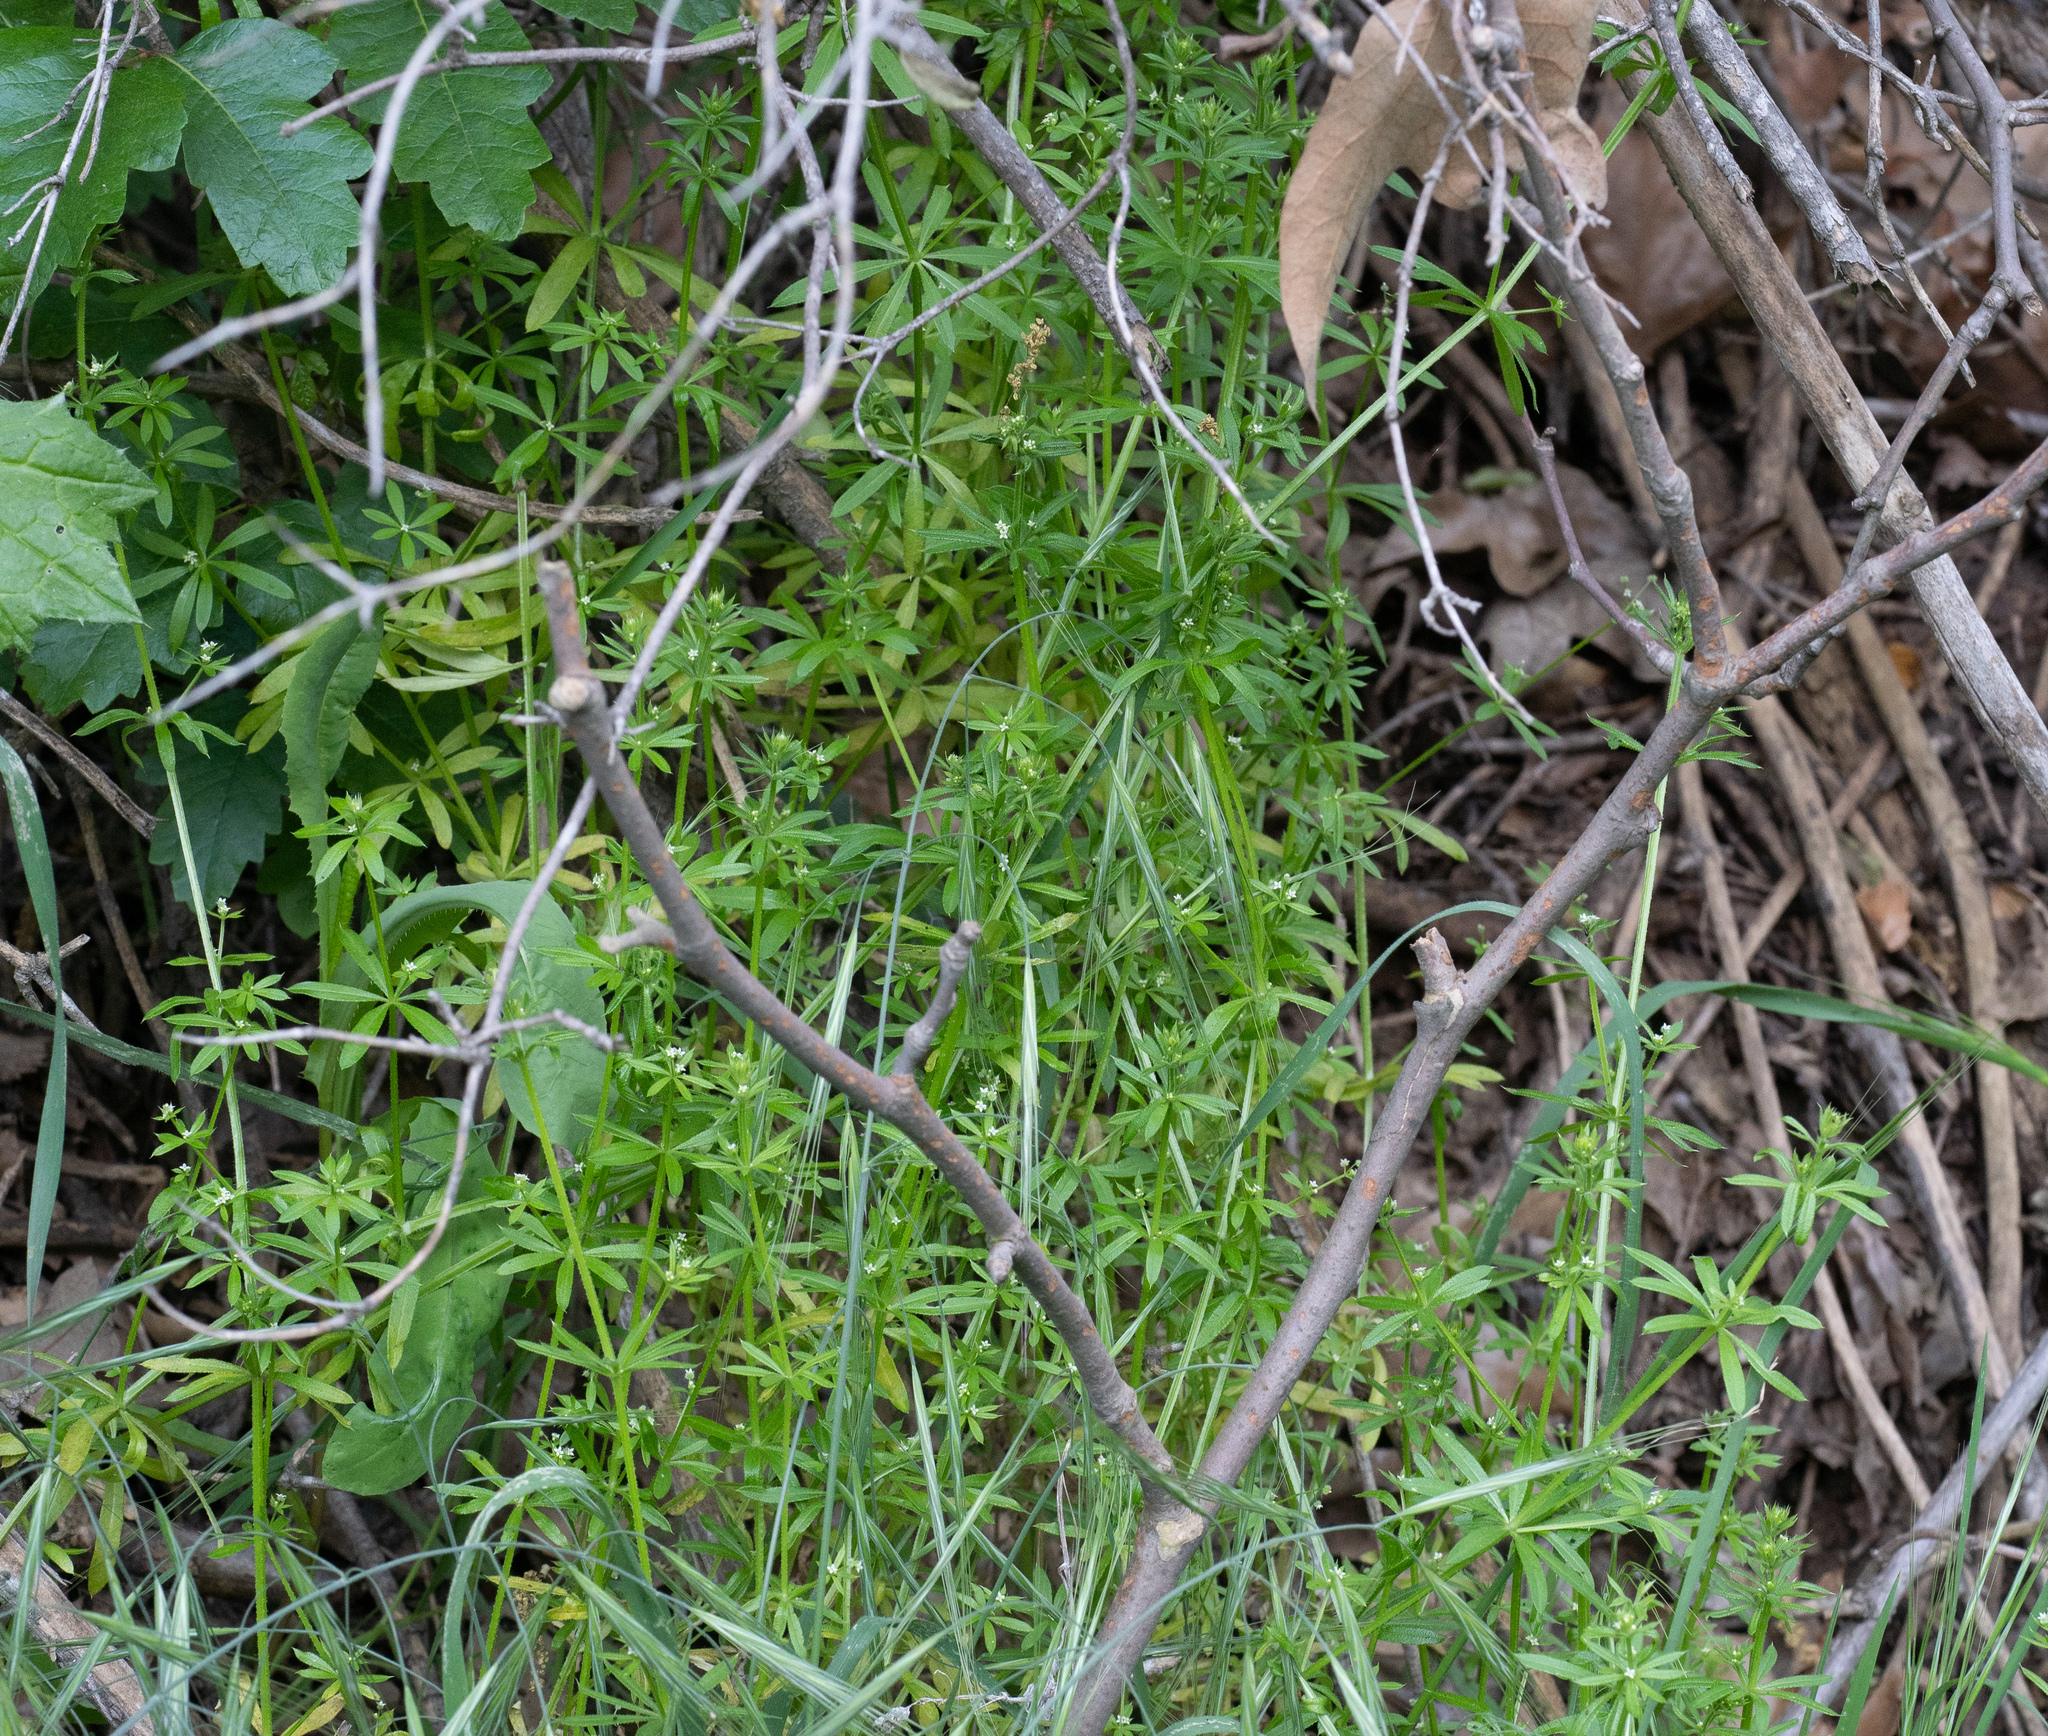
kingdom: Plantae
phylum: Tracheophyta
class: Magnoliopsida
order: Gentianales
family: Rubiaceae
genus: Galium
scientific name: Galium aparine
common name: Cleavers
